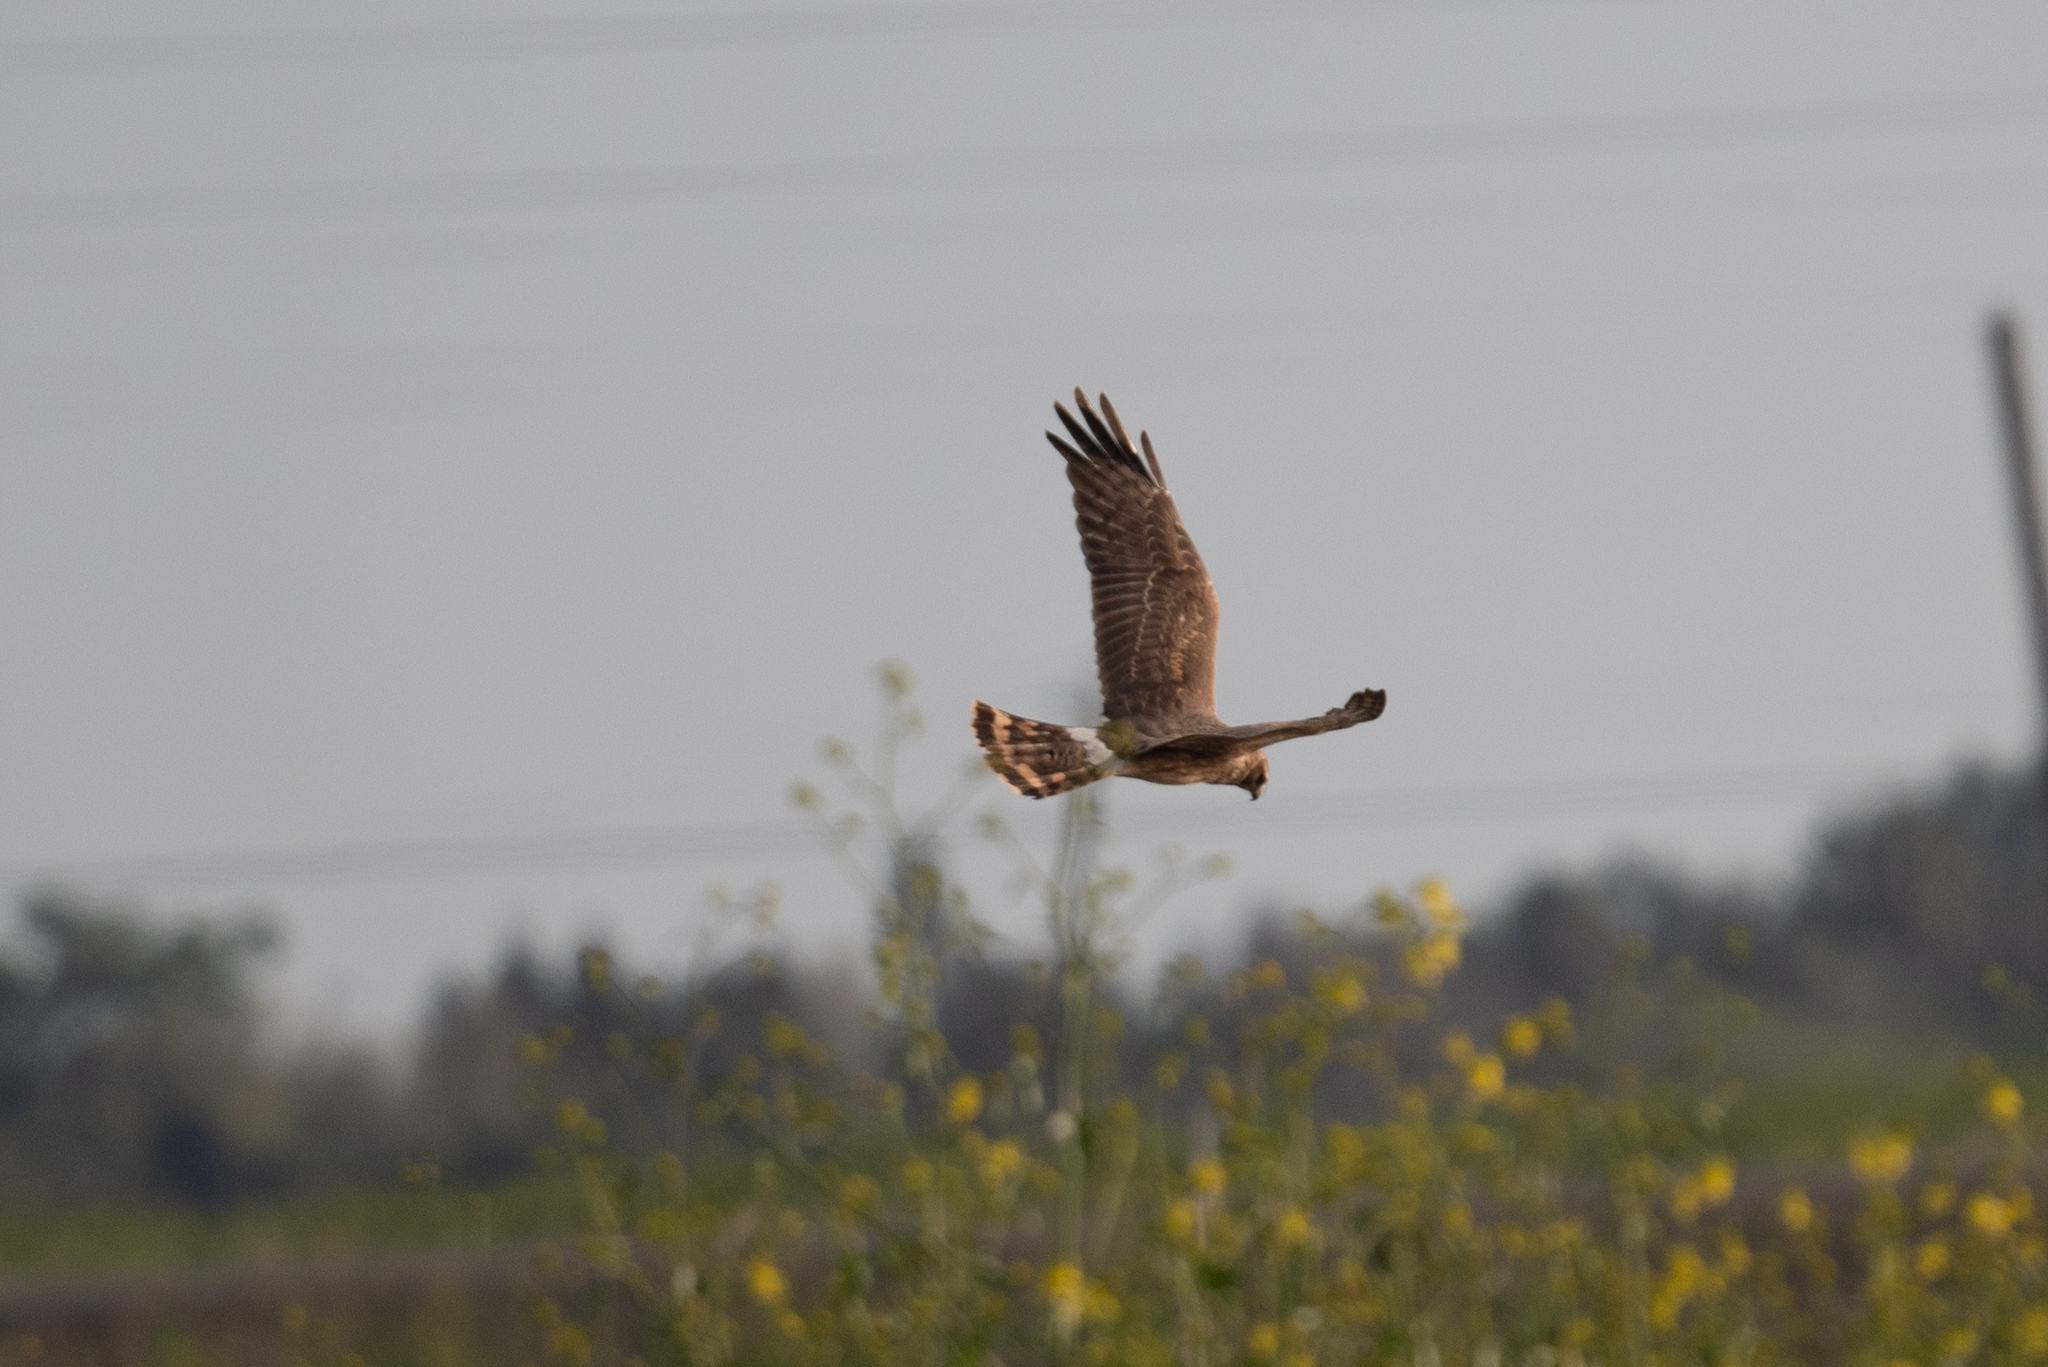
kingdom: Animalia
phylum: Chordata
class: Aves
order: Accipitriformes
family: Accipitridae
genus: Circus
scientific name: Circus cyaneus
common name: Hen harrier
